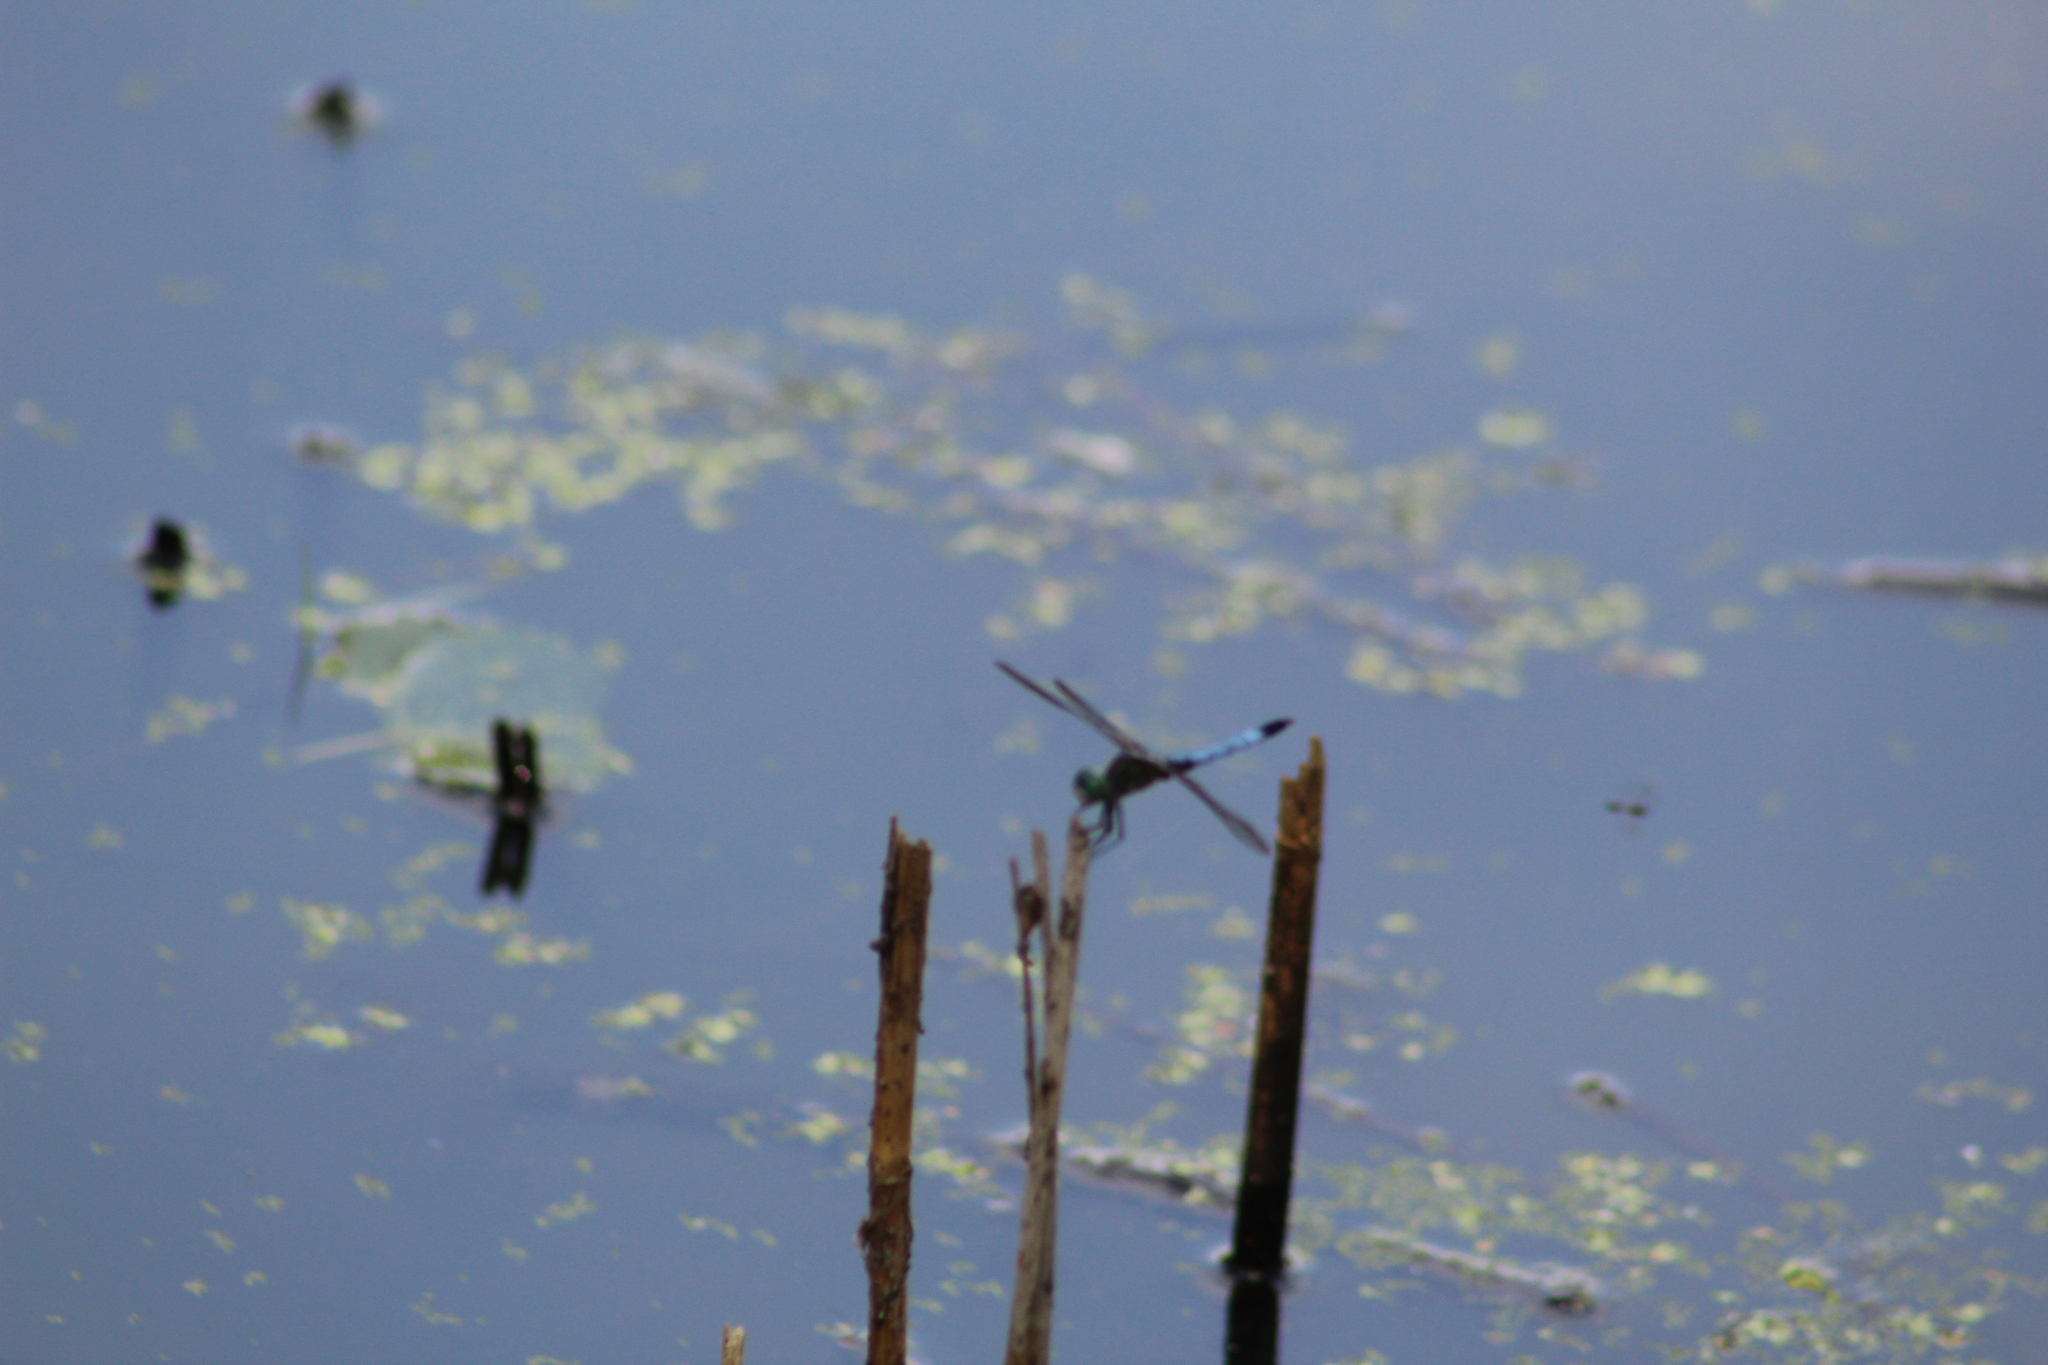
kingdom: Animalia
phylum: Arthropoda
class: Insecta
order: Odonata
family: Libellulidae
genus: Pachydiplax
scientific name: Pachydiplax longipennis
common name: Blue dasher
